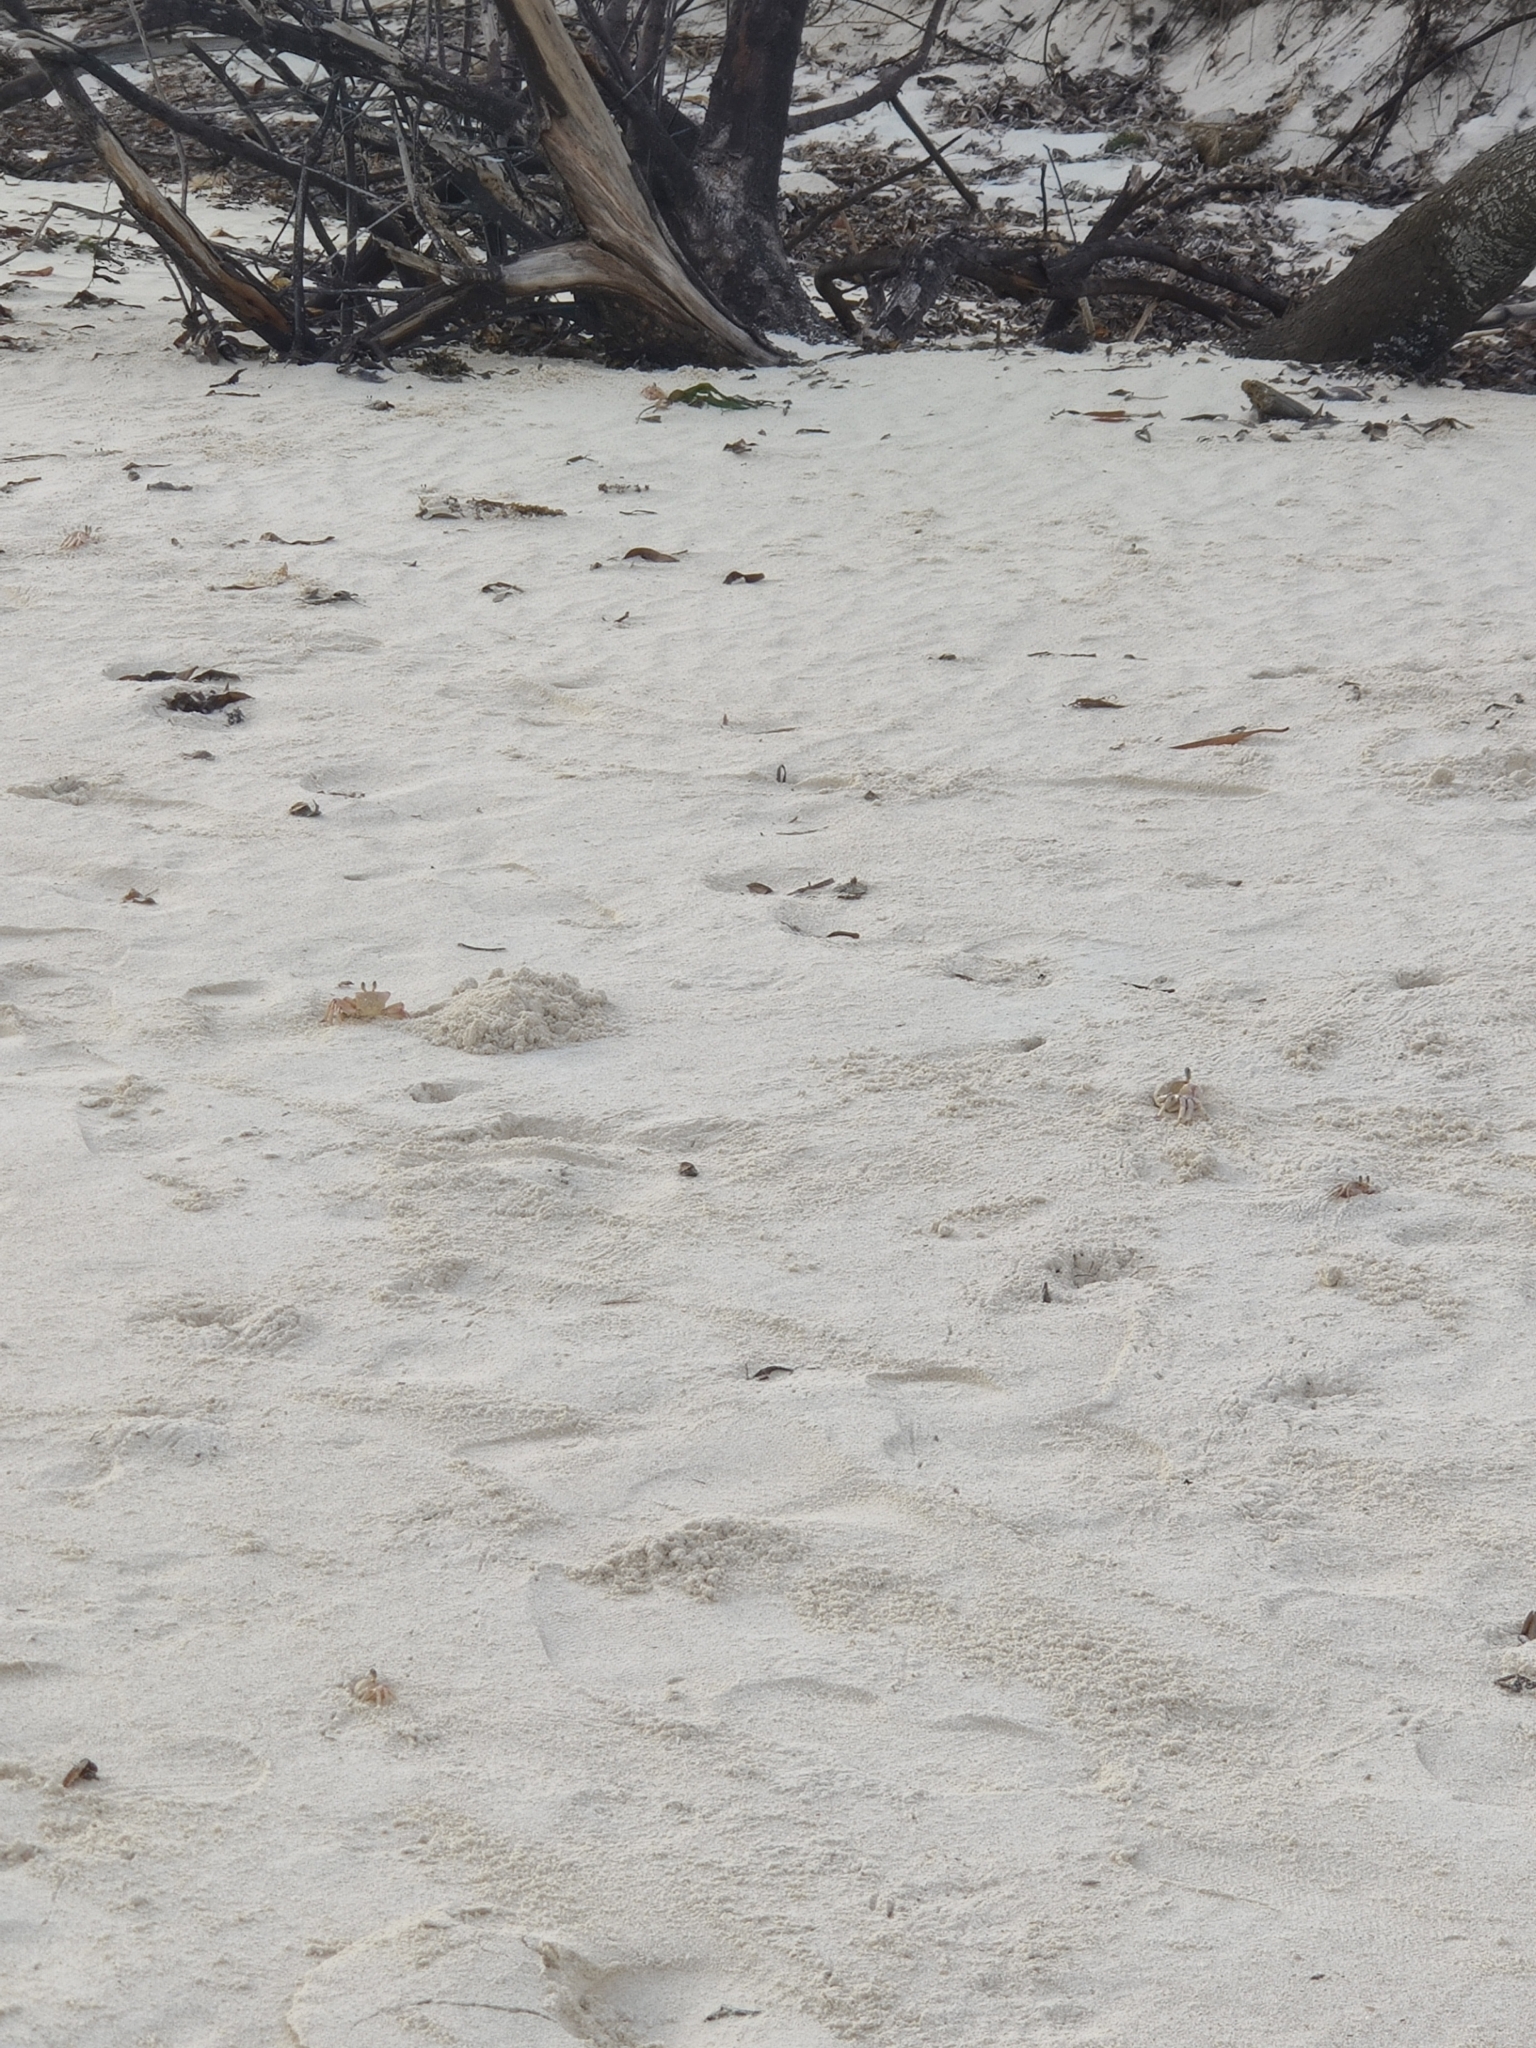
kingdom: Animalia
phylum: Arthropoda
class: Malacostraca
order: Decapoda
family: Ocypodidae
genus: Ocypode
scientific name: Ocypode ryderi
